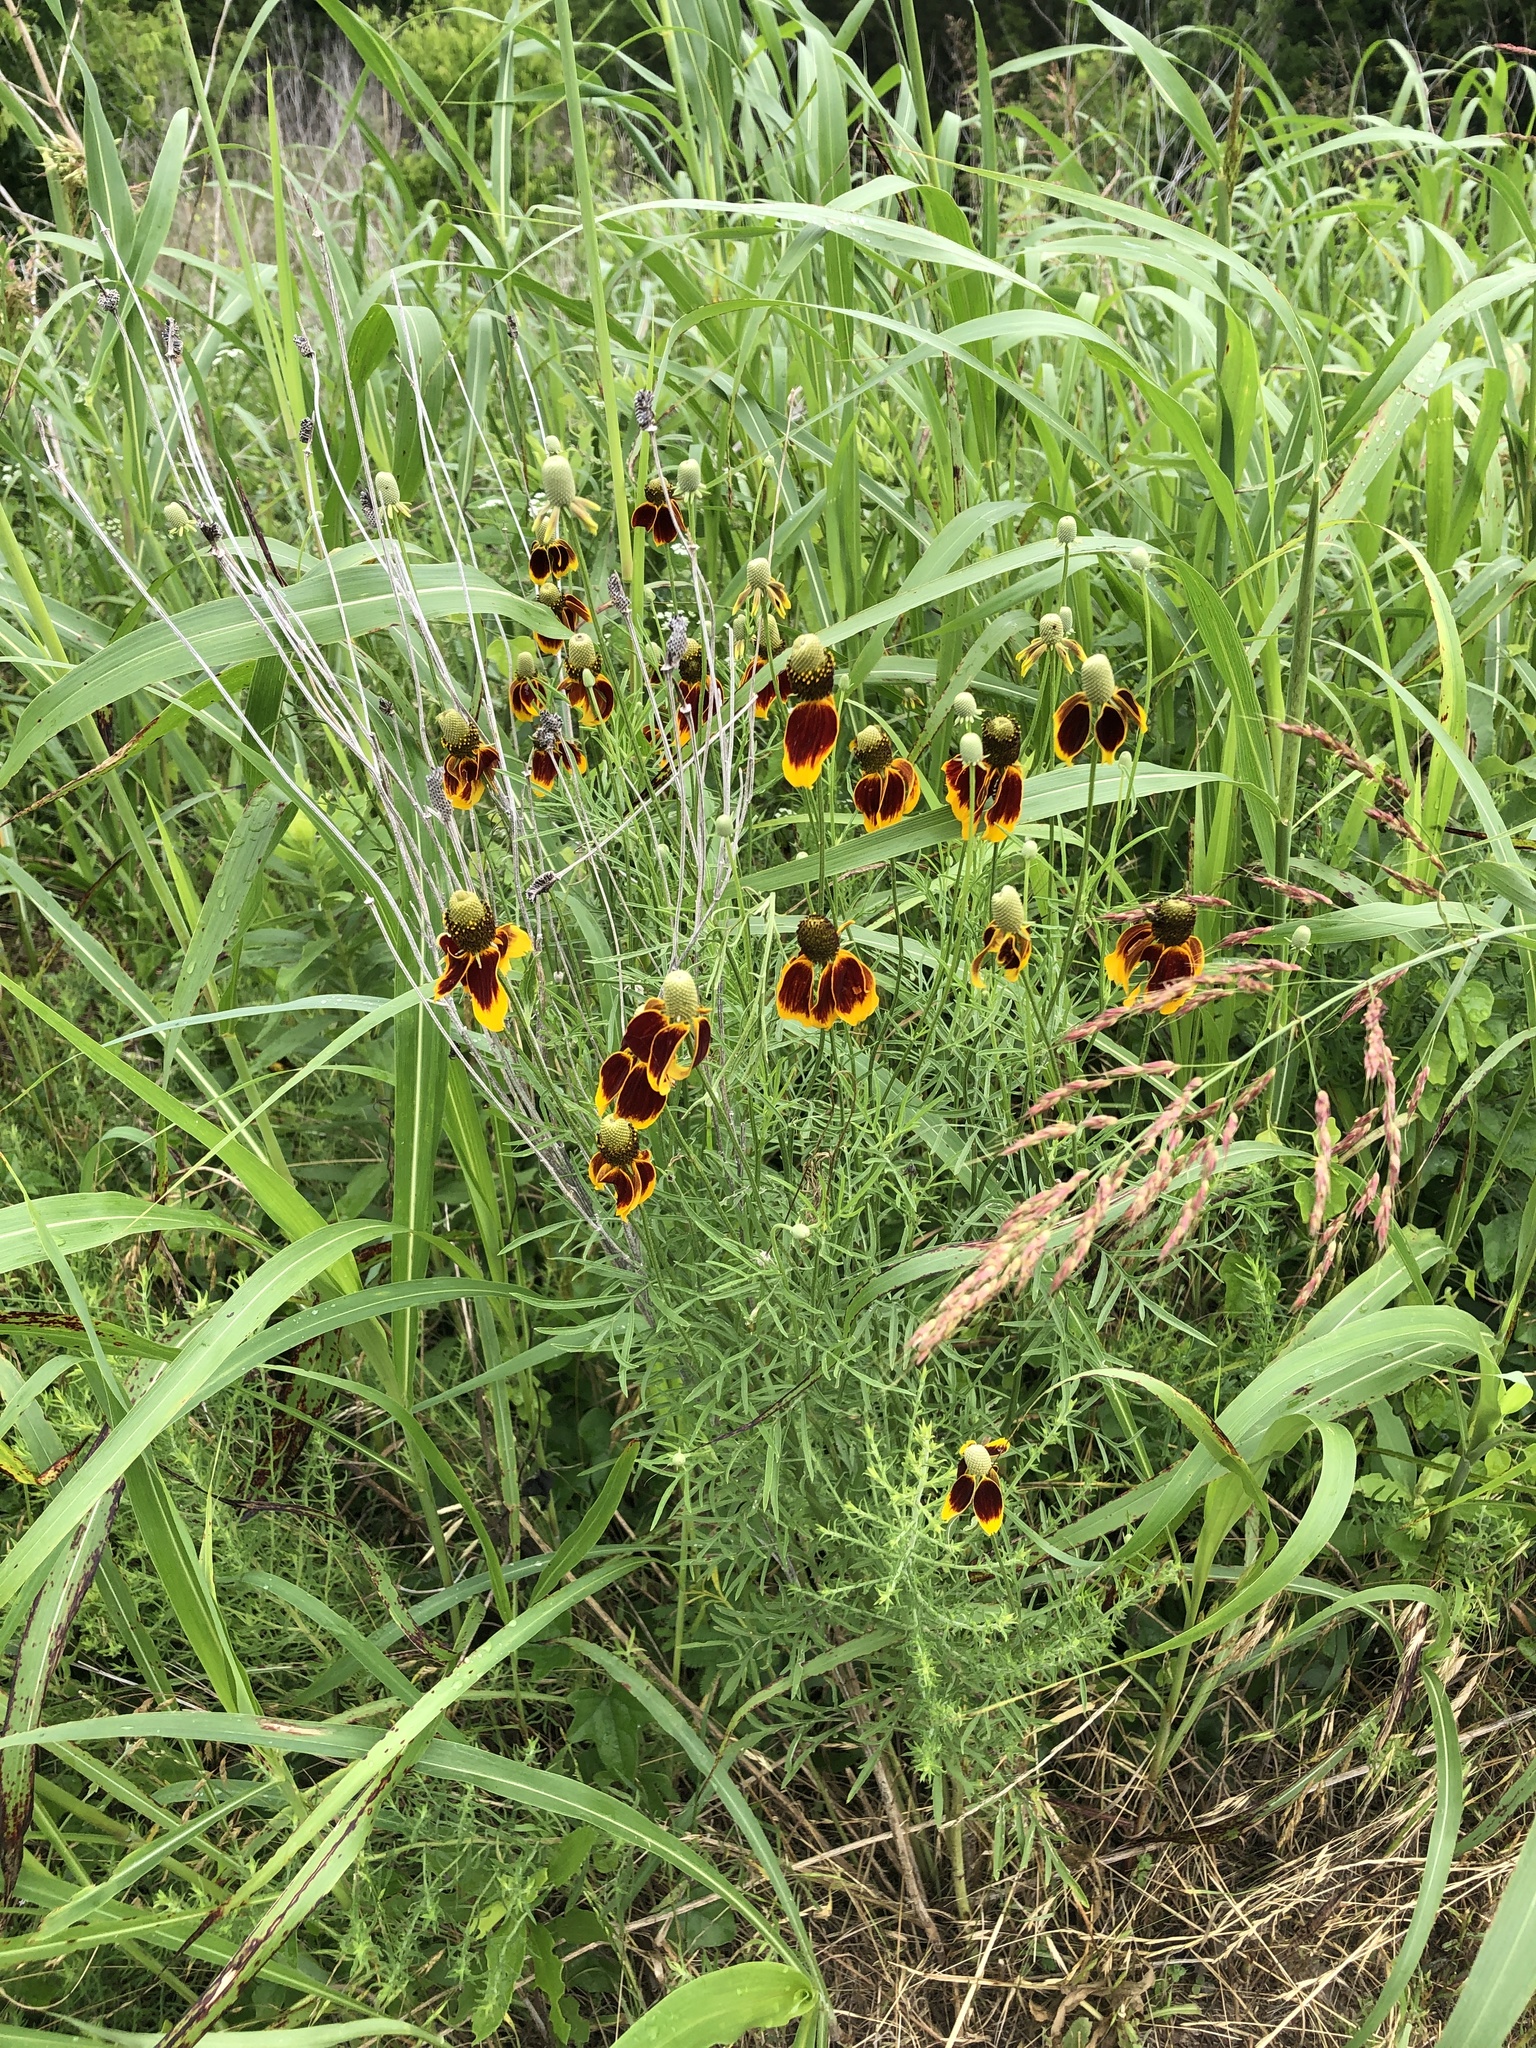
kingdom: Plantae
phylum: Tracheophyta
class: Magnoliopsida
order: Asterales
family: Asteraceae
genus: Ratibida
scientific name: Ratibida columnifera
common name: Prairie coneflower
